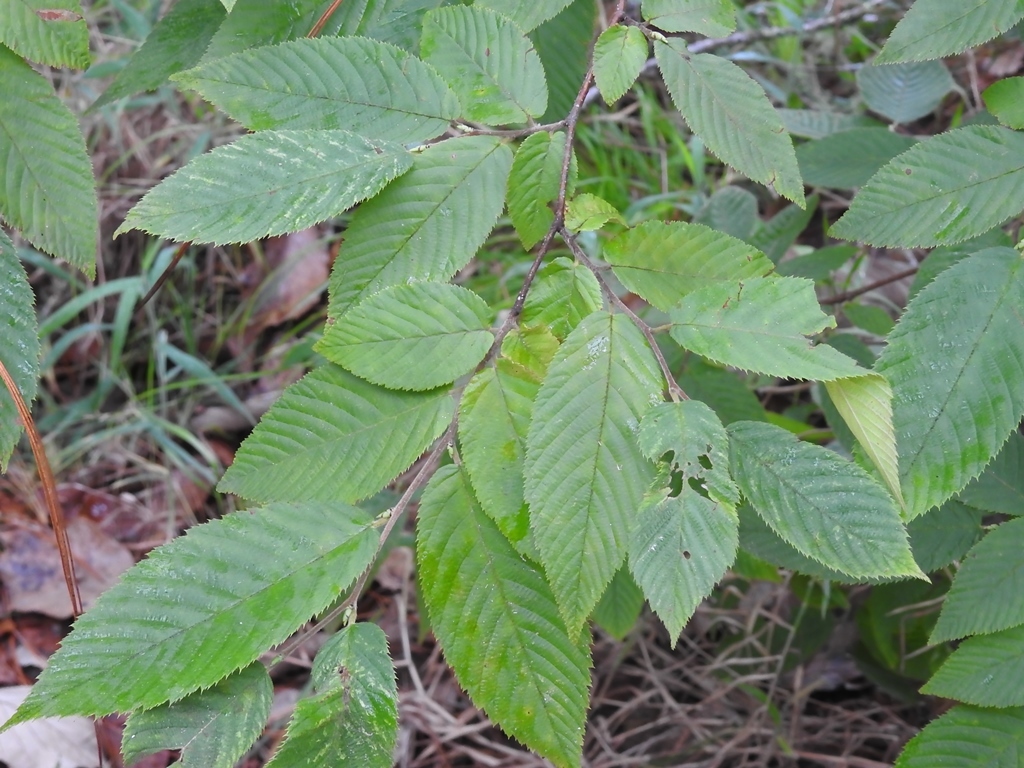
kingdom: Plantae
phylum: Tracheophyta
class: Magnoliopsida
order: Fagales
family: Betulaceae
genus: Ostrya
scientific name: Ostrya virginiana
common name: Ironwood
